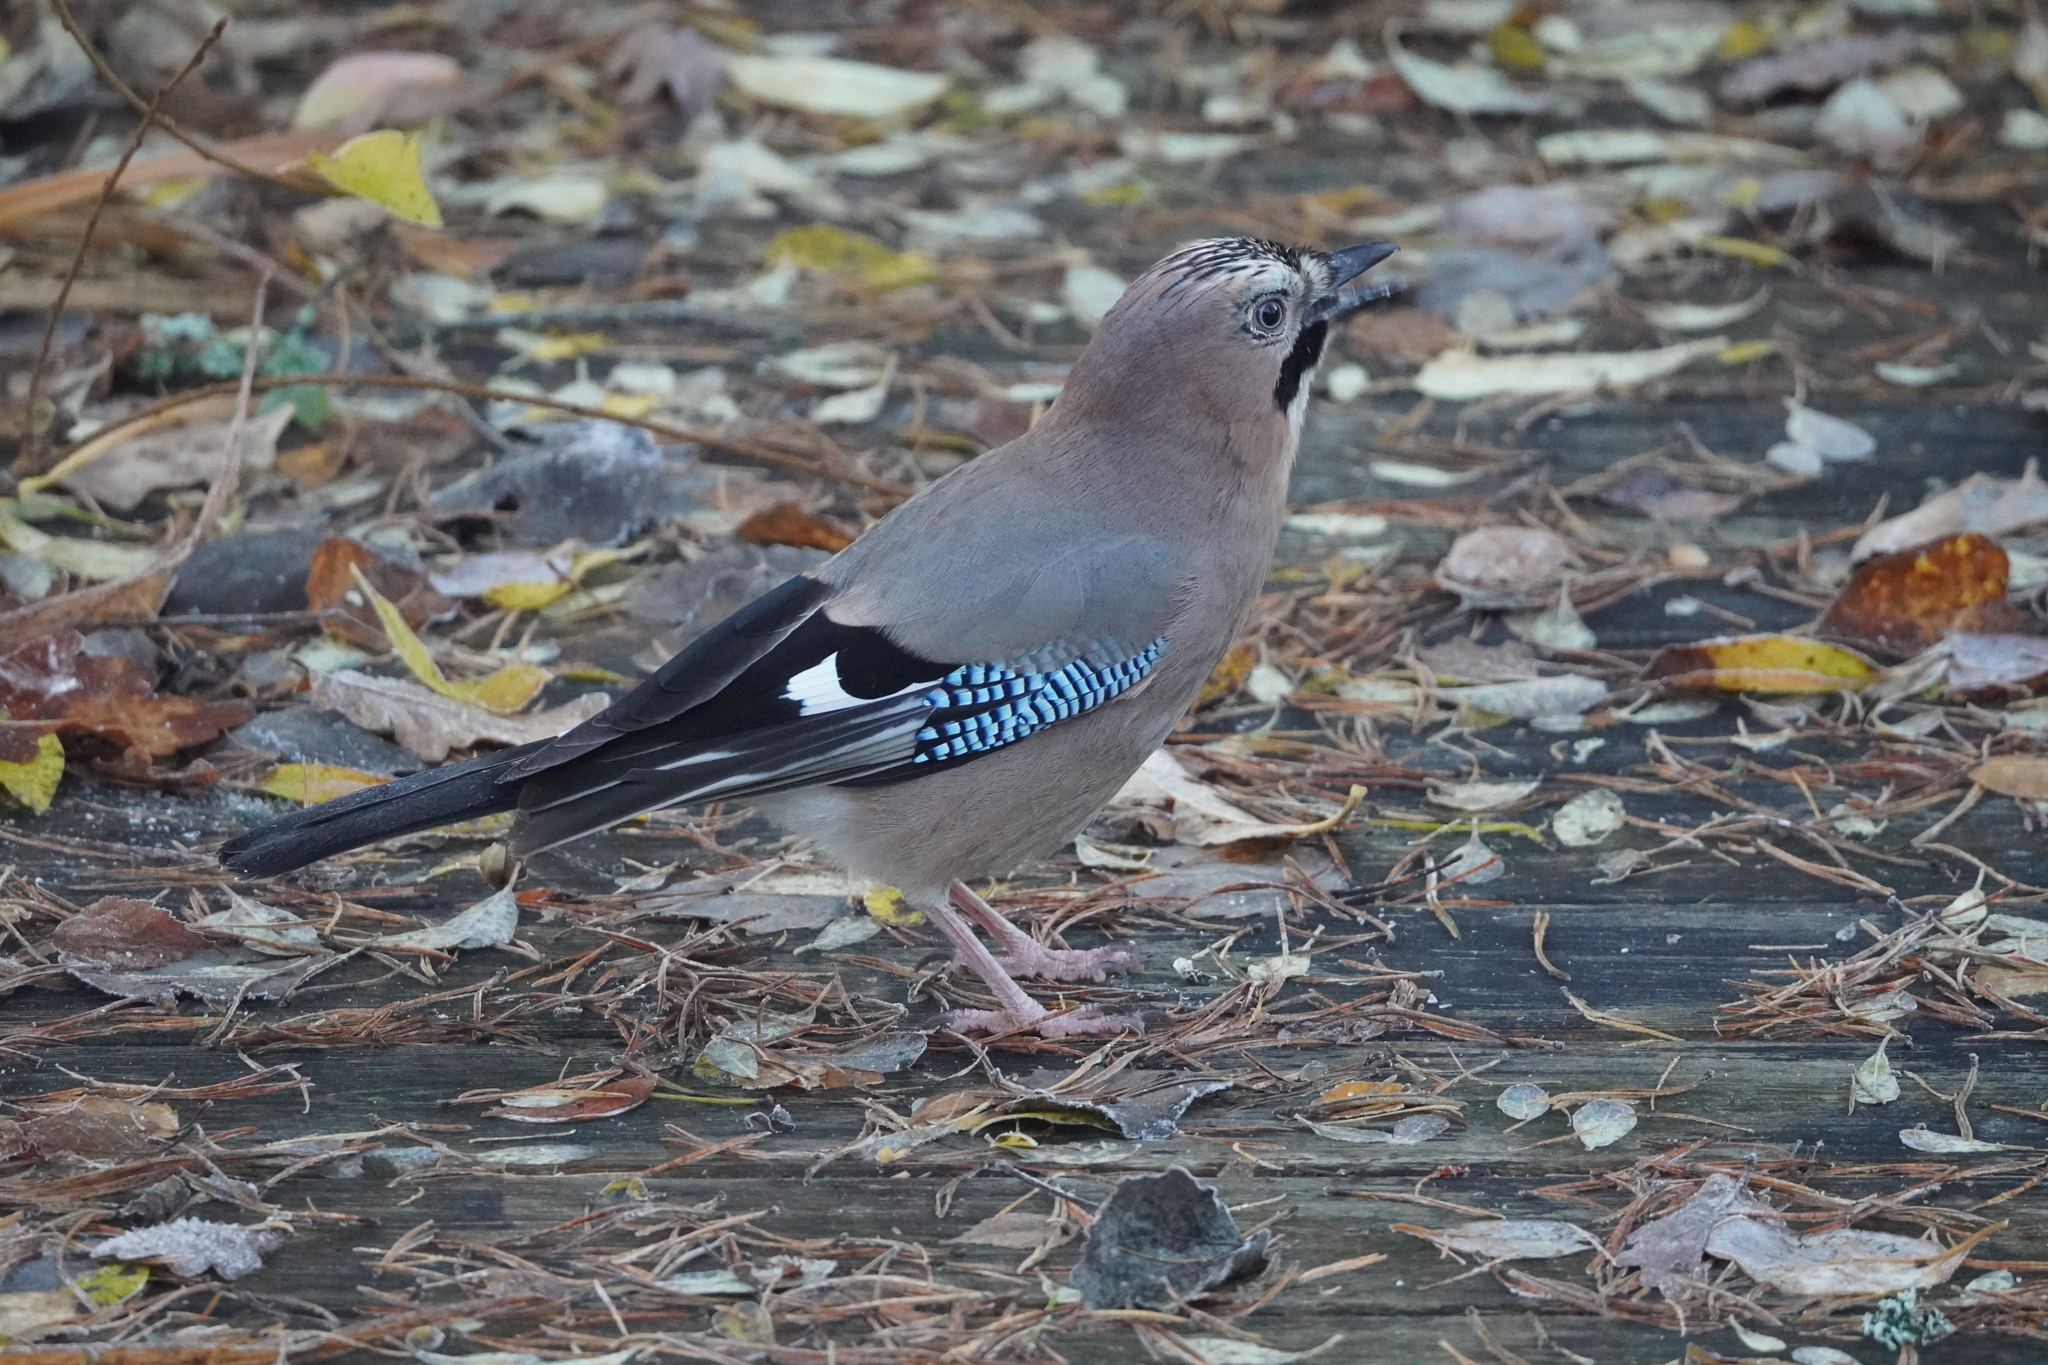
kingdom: Animalia
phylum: Chordata
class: Aves
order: Passeriformes
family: Corvidae
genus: Garrulus
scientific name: Garrulus glandarius
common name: Eurasian jay
